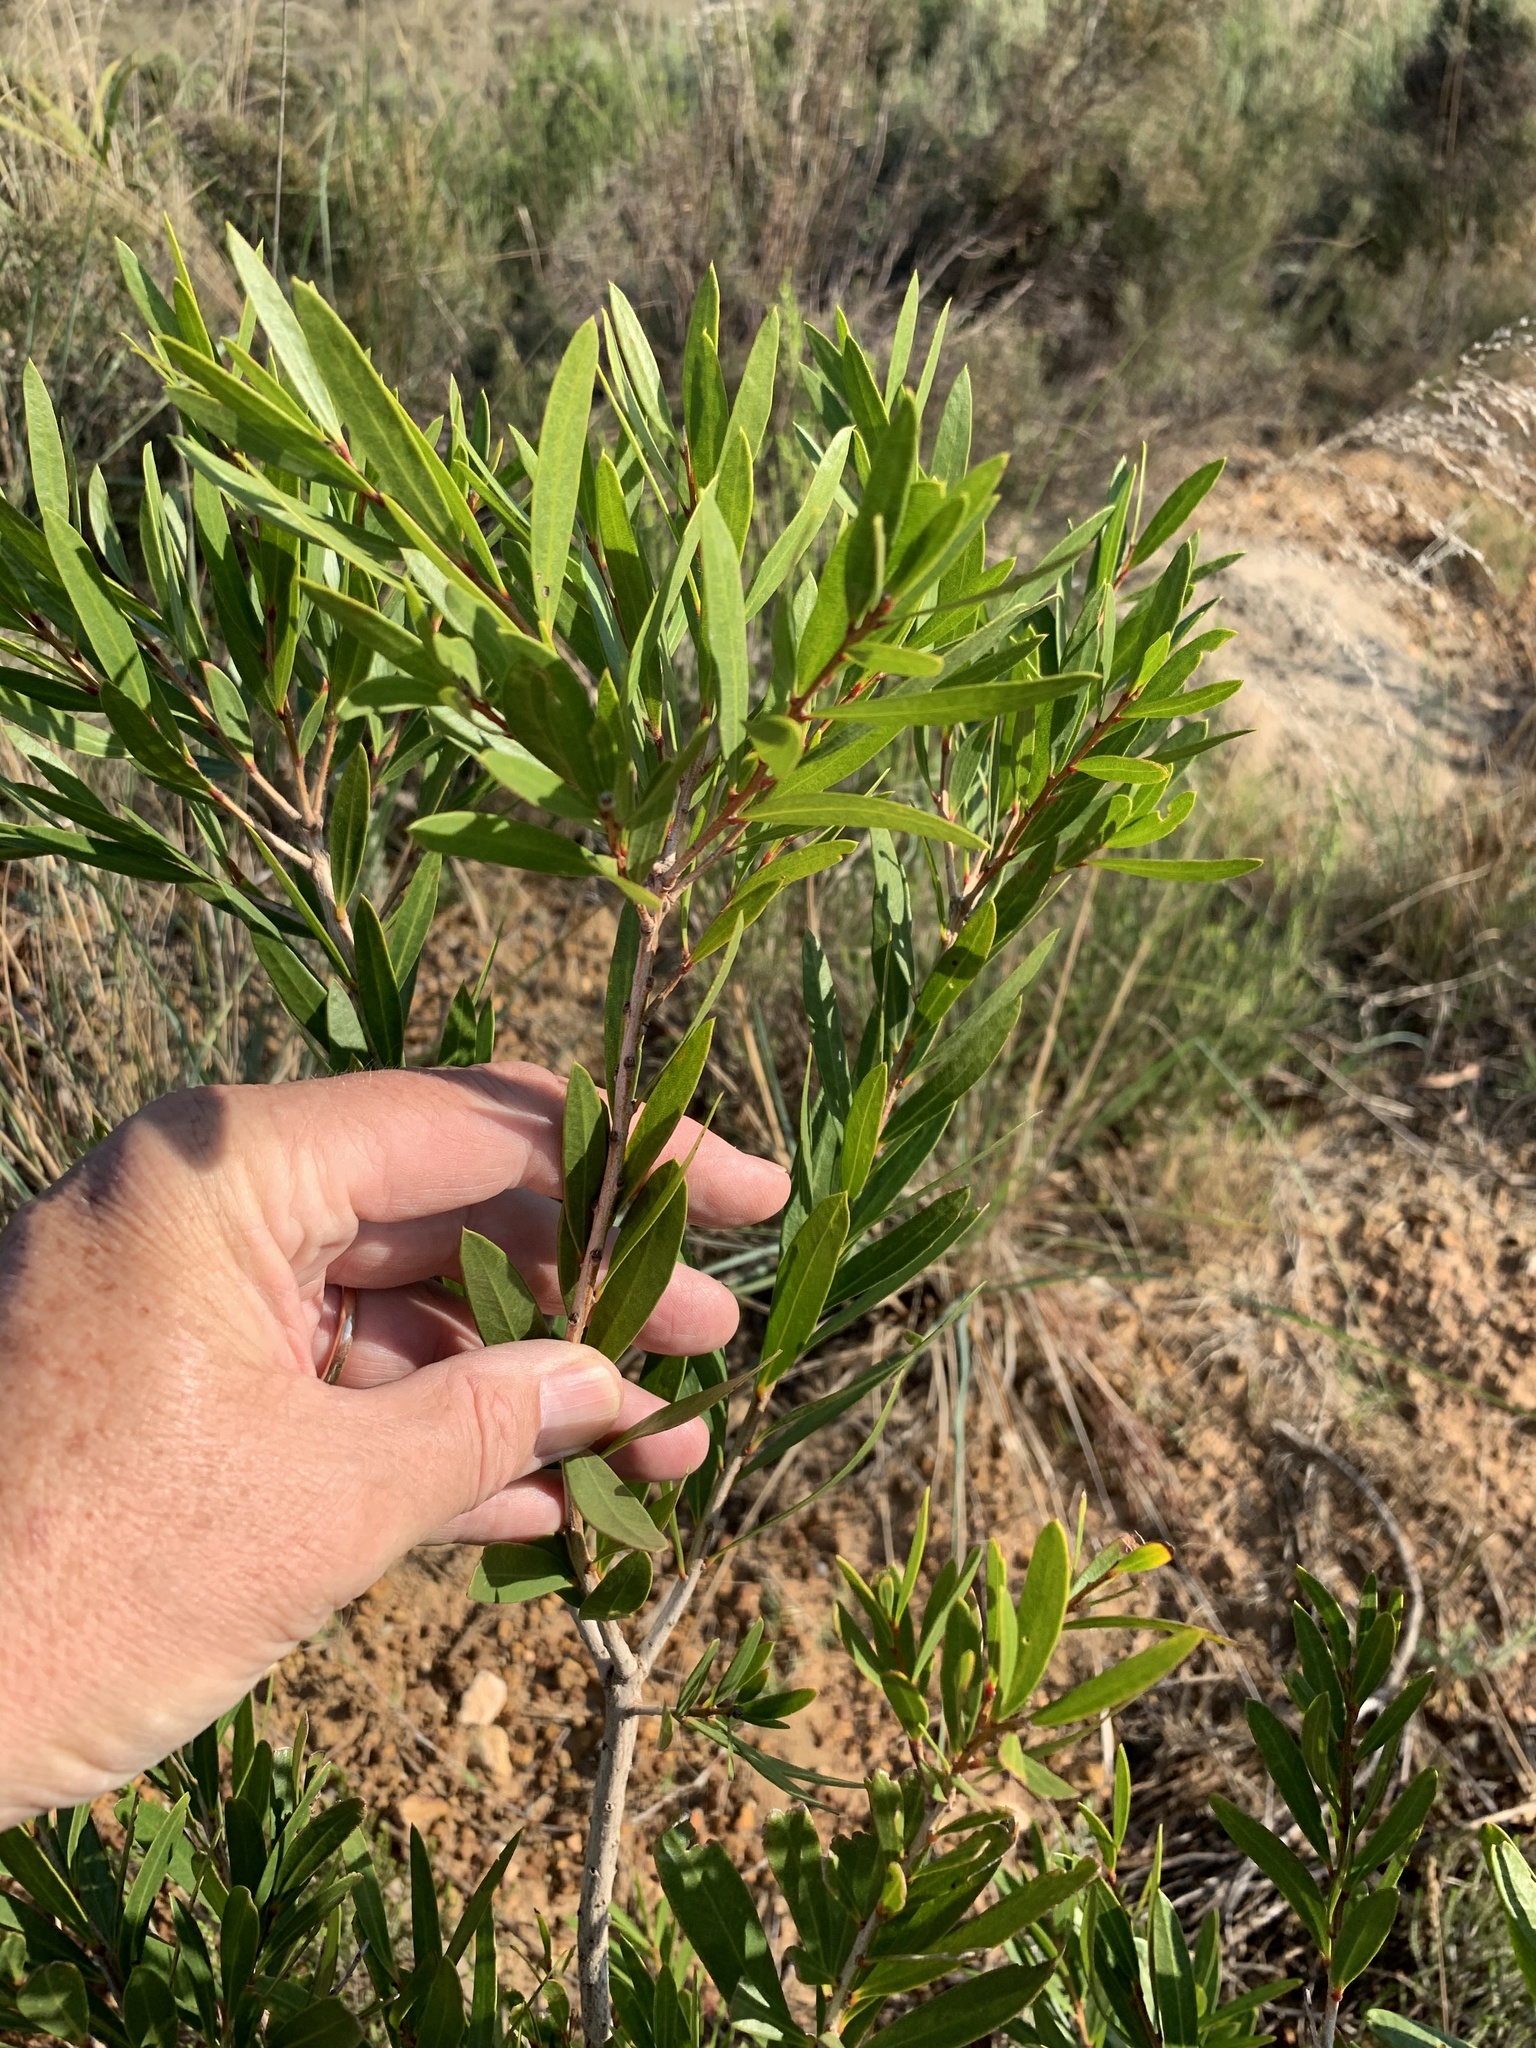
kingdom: Plantae
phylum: Tracheophyta
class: Magnoliopsida
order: Myrtales
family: Myrtaceae
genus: Callistemon
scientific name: Callistemon viminalis
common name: Drooping bottlebrush
